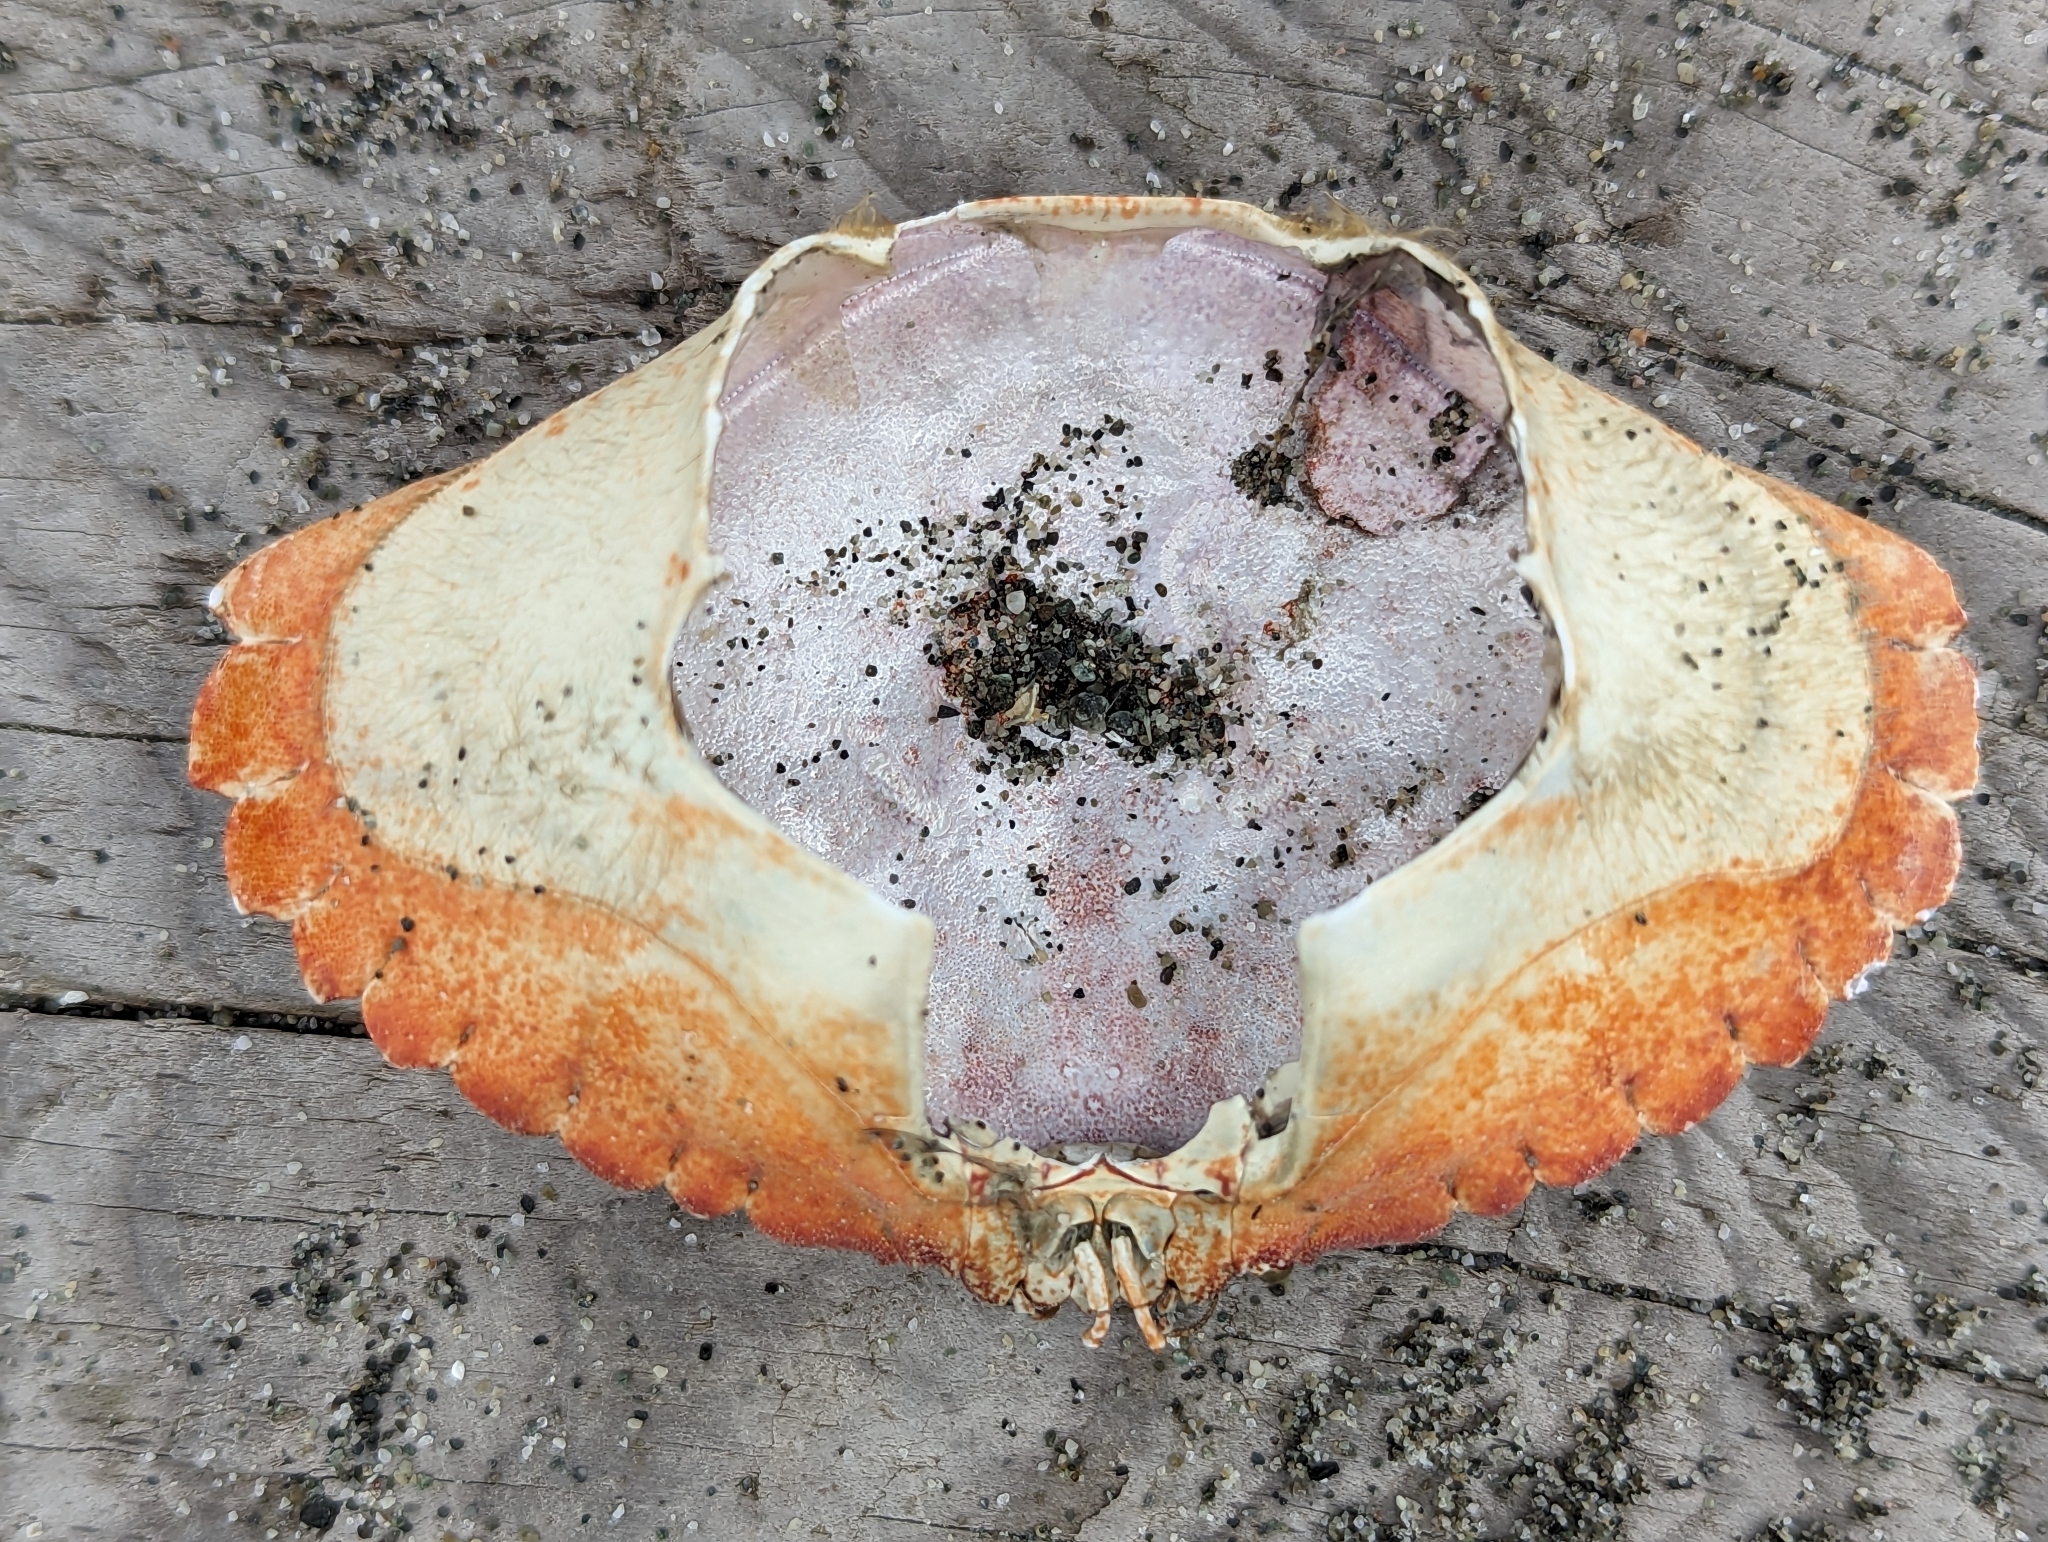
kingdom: Animalia
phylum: Arthropoda
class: Malacostraca
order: Decapoda
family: Cancridae
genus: Cancer
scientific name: Cancer productus
